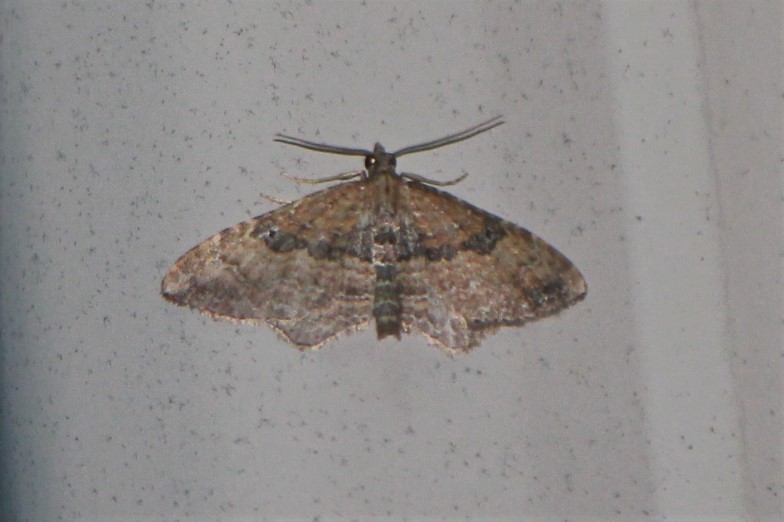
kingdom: Animalia
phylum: Arthropoda
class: Insecta
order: Lepidoptera
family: Geometridae
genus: Orthonama
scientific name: Orthonama obstipata
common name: The gem
